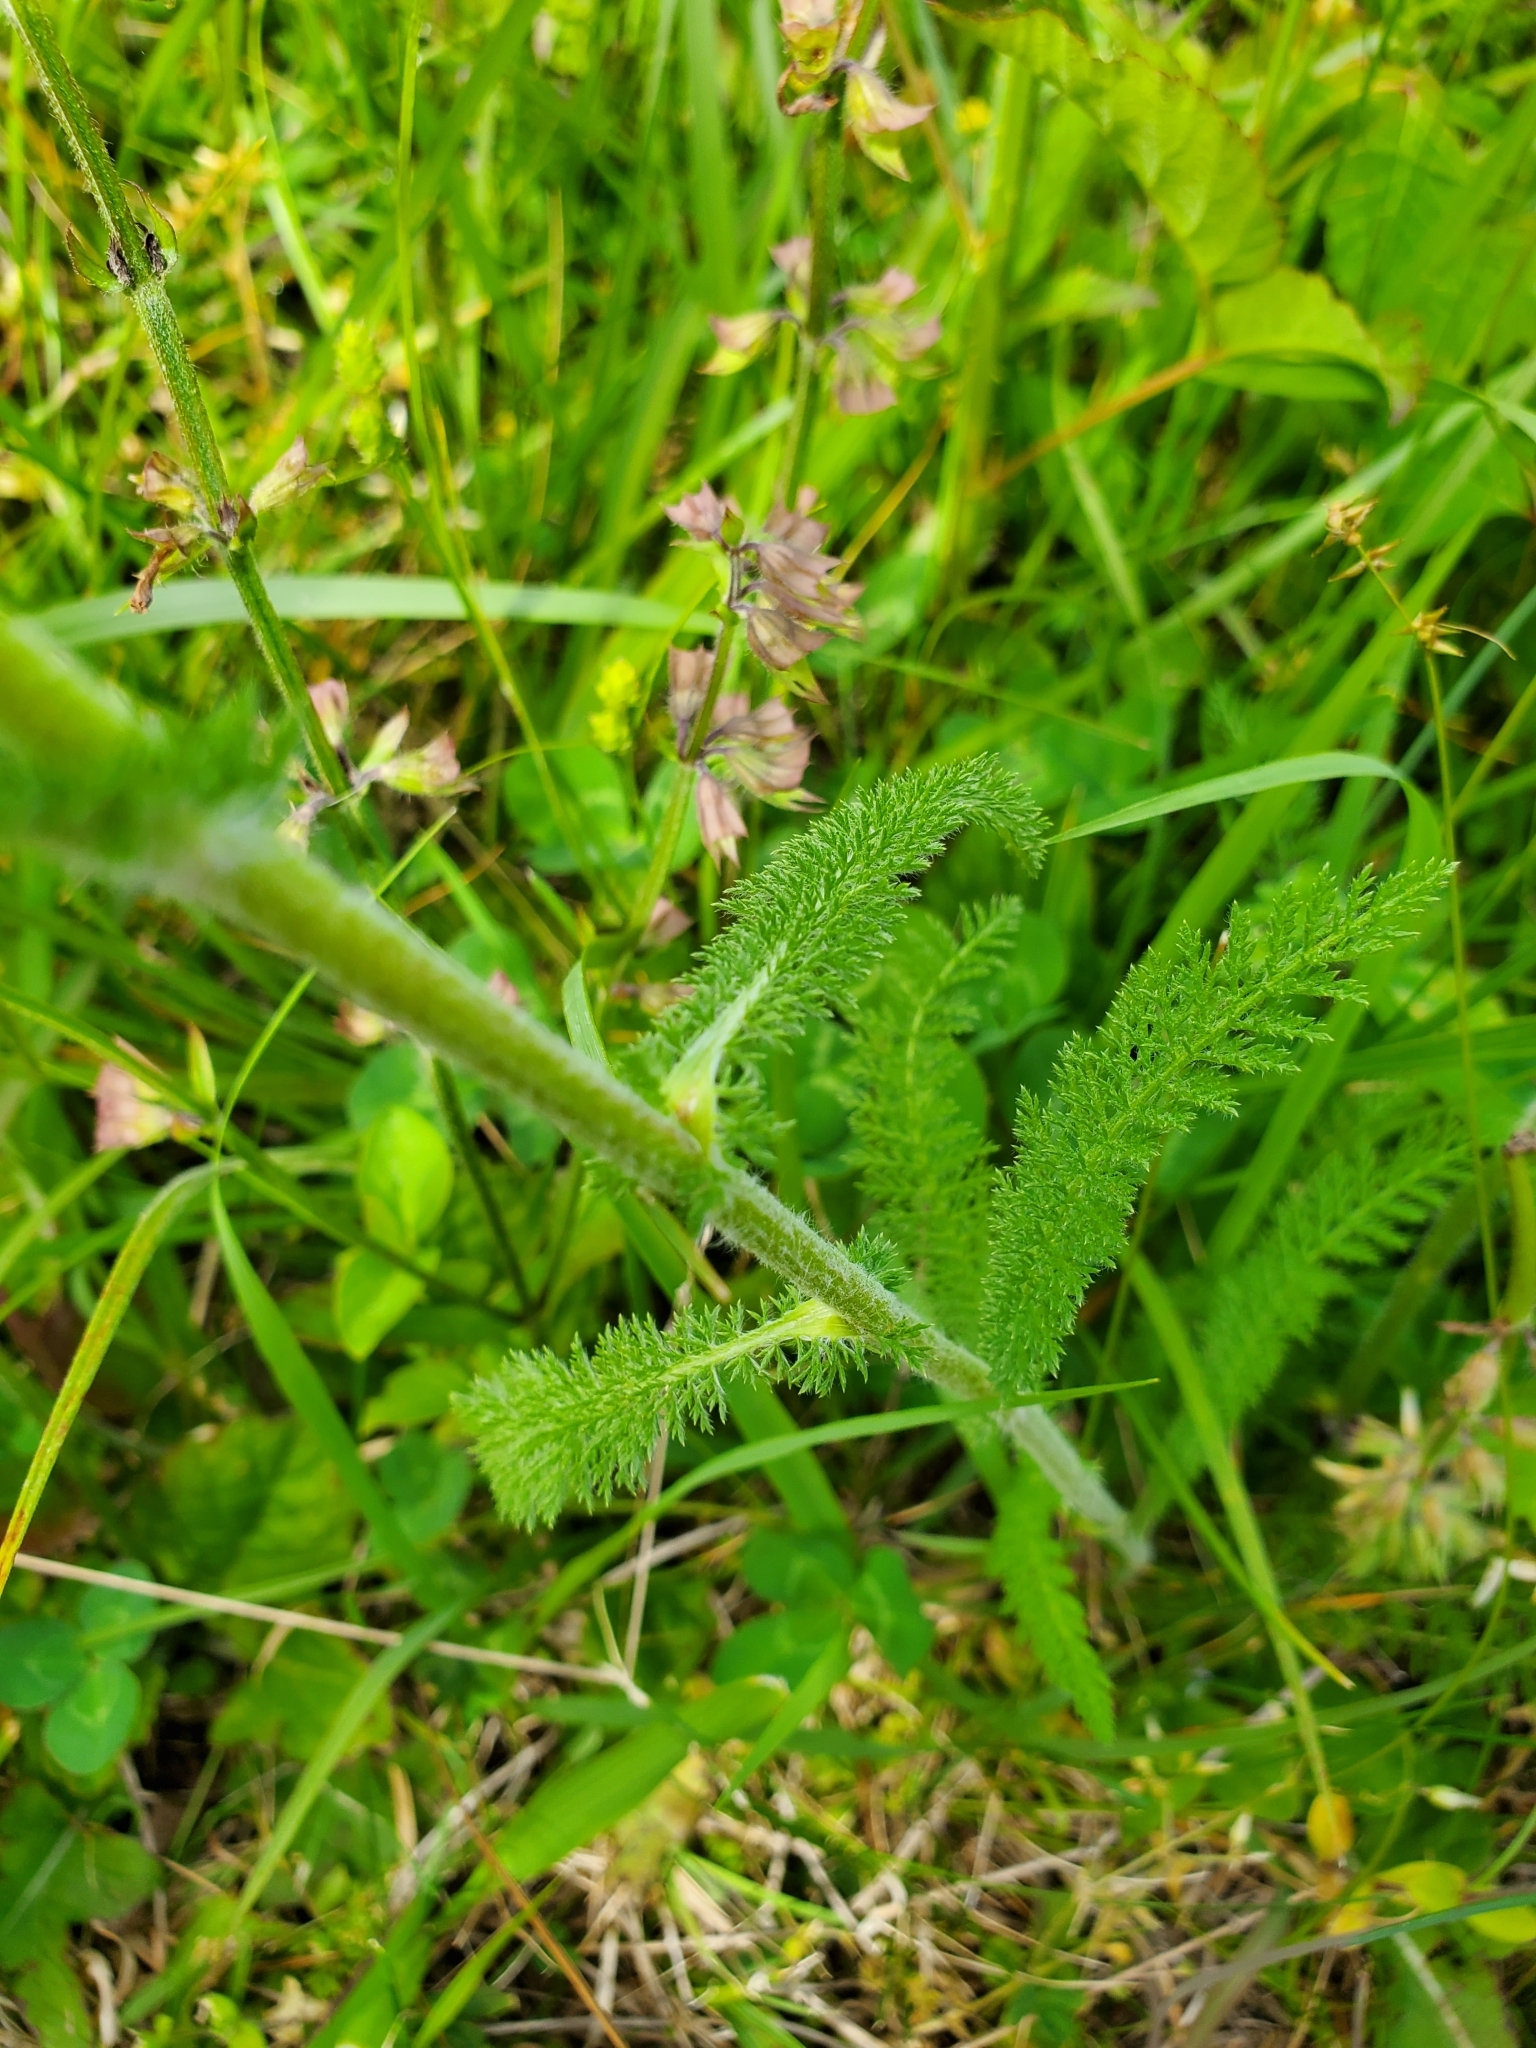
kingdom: Plantae
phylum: Tracheophyta
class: Magnoliopsida
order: Asterales
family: Asteraceae
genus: Achillea
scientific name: Achillea millefolium
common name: Yarrow
